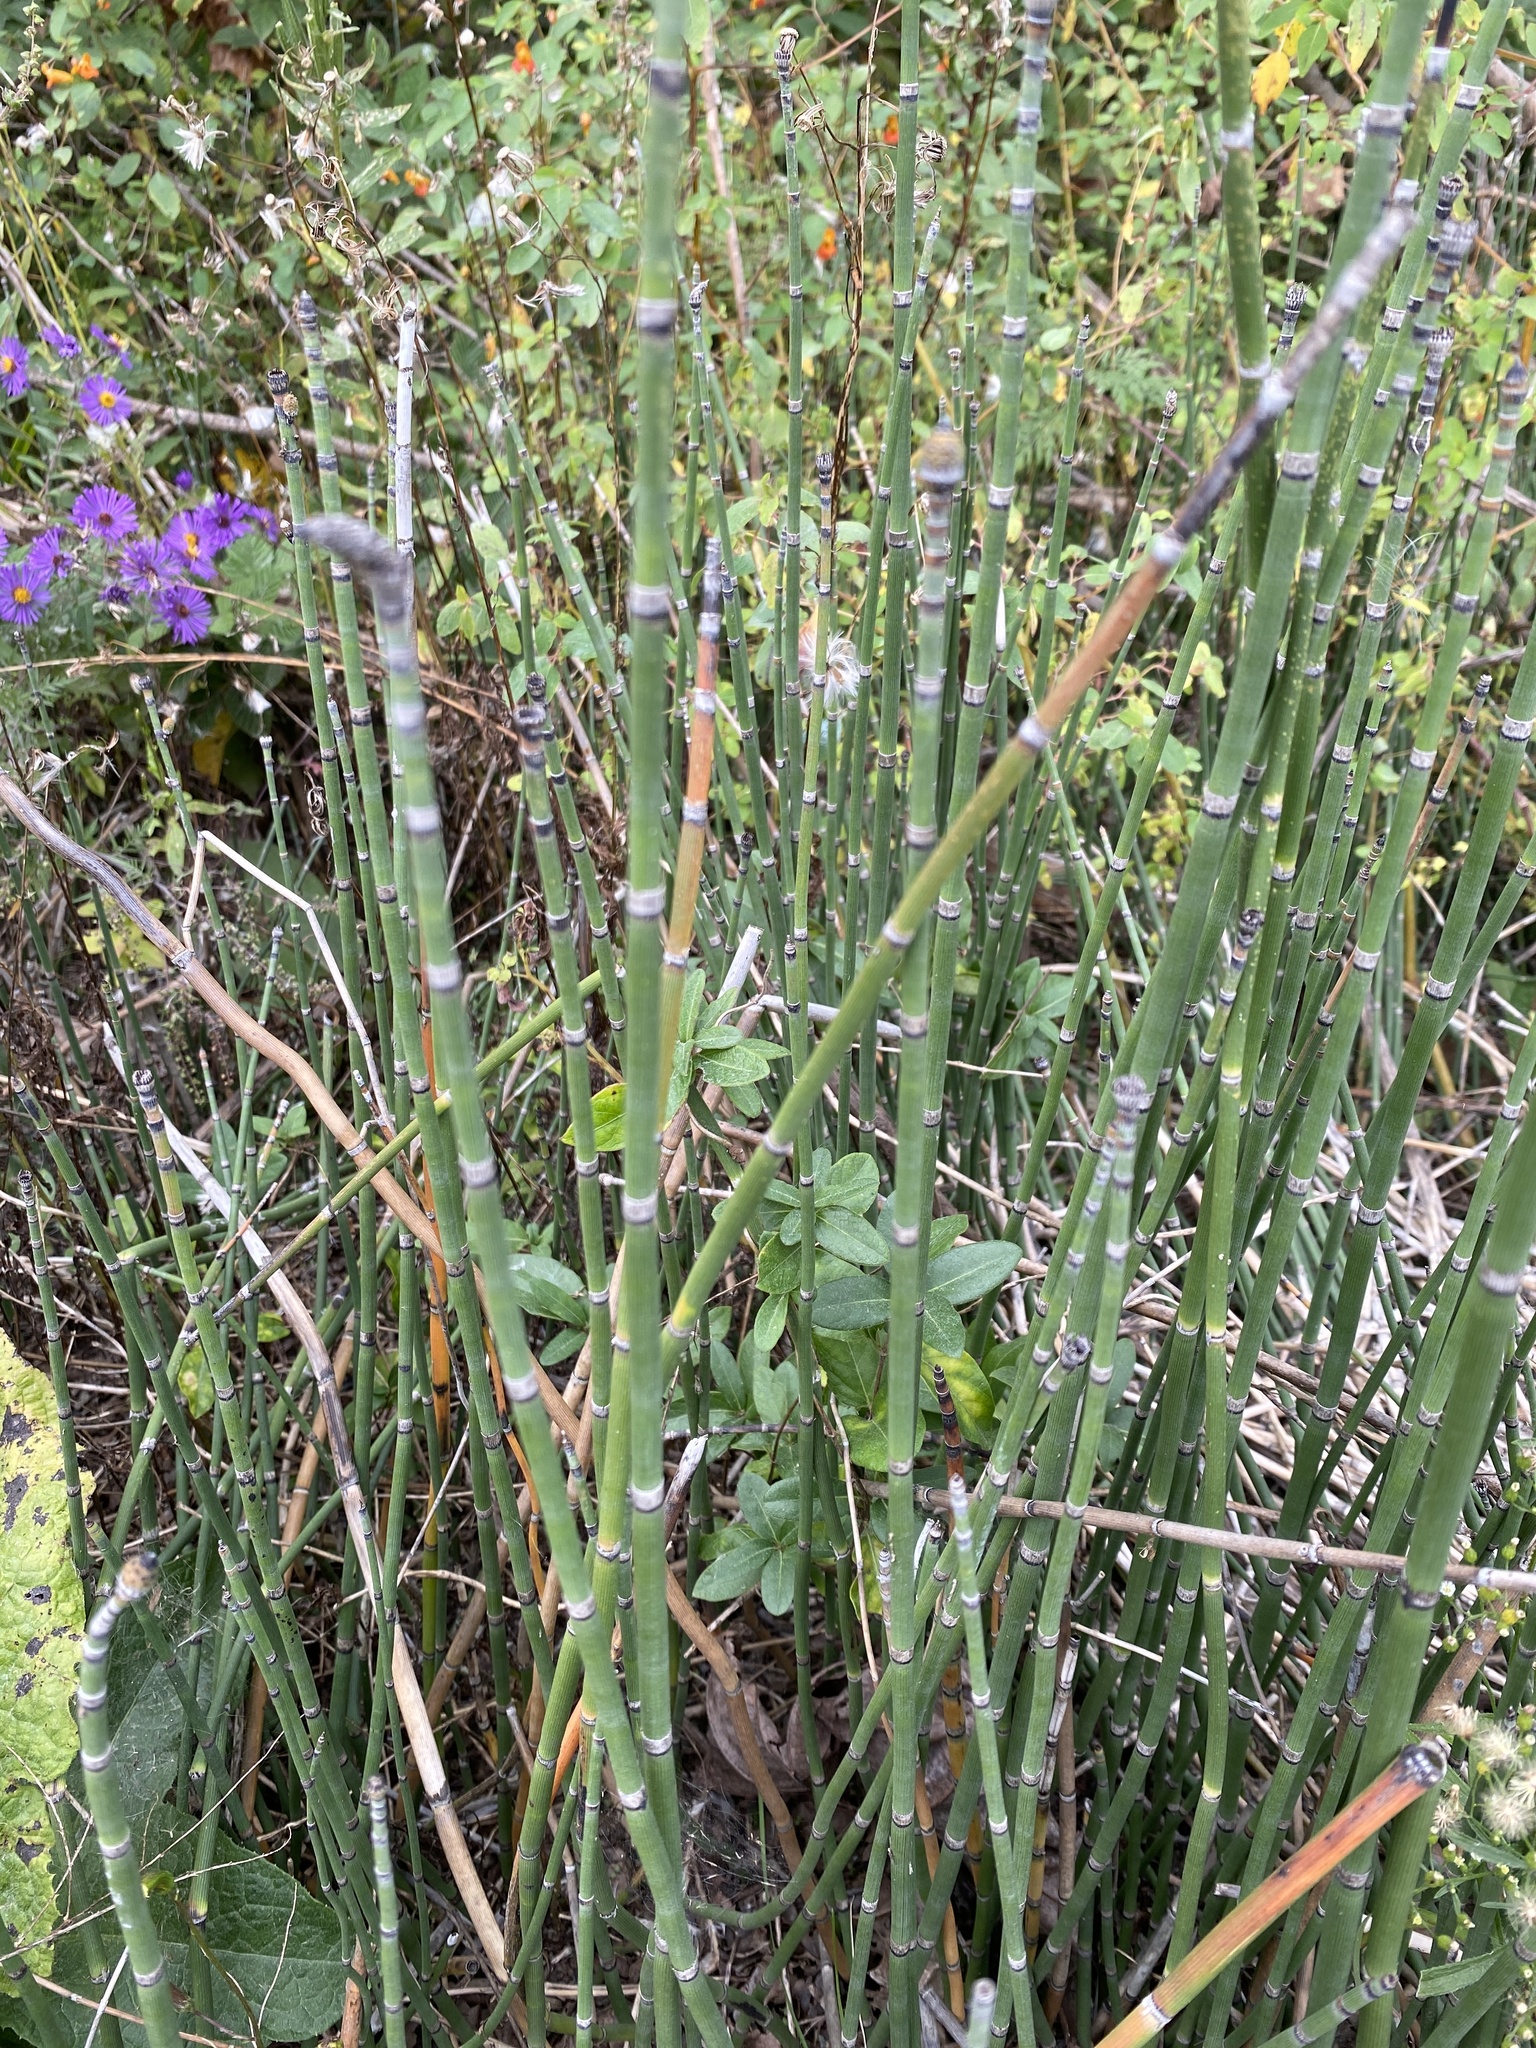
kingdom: Plantae
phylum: Tracheophyta
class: Polypodiopsida
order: Equisetales
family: Equisetaceae
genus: Equisetum
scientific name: Equisetum praealtum
